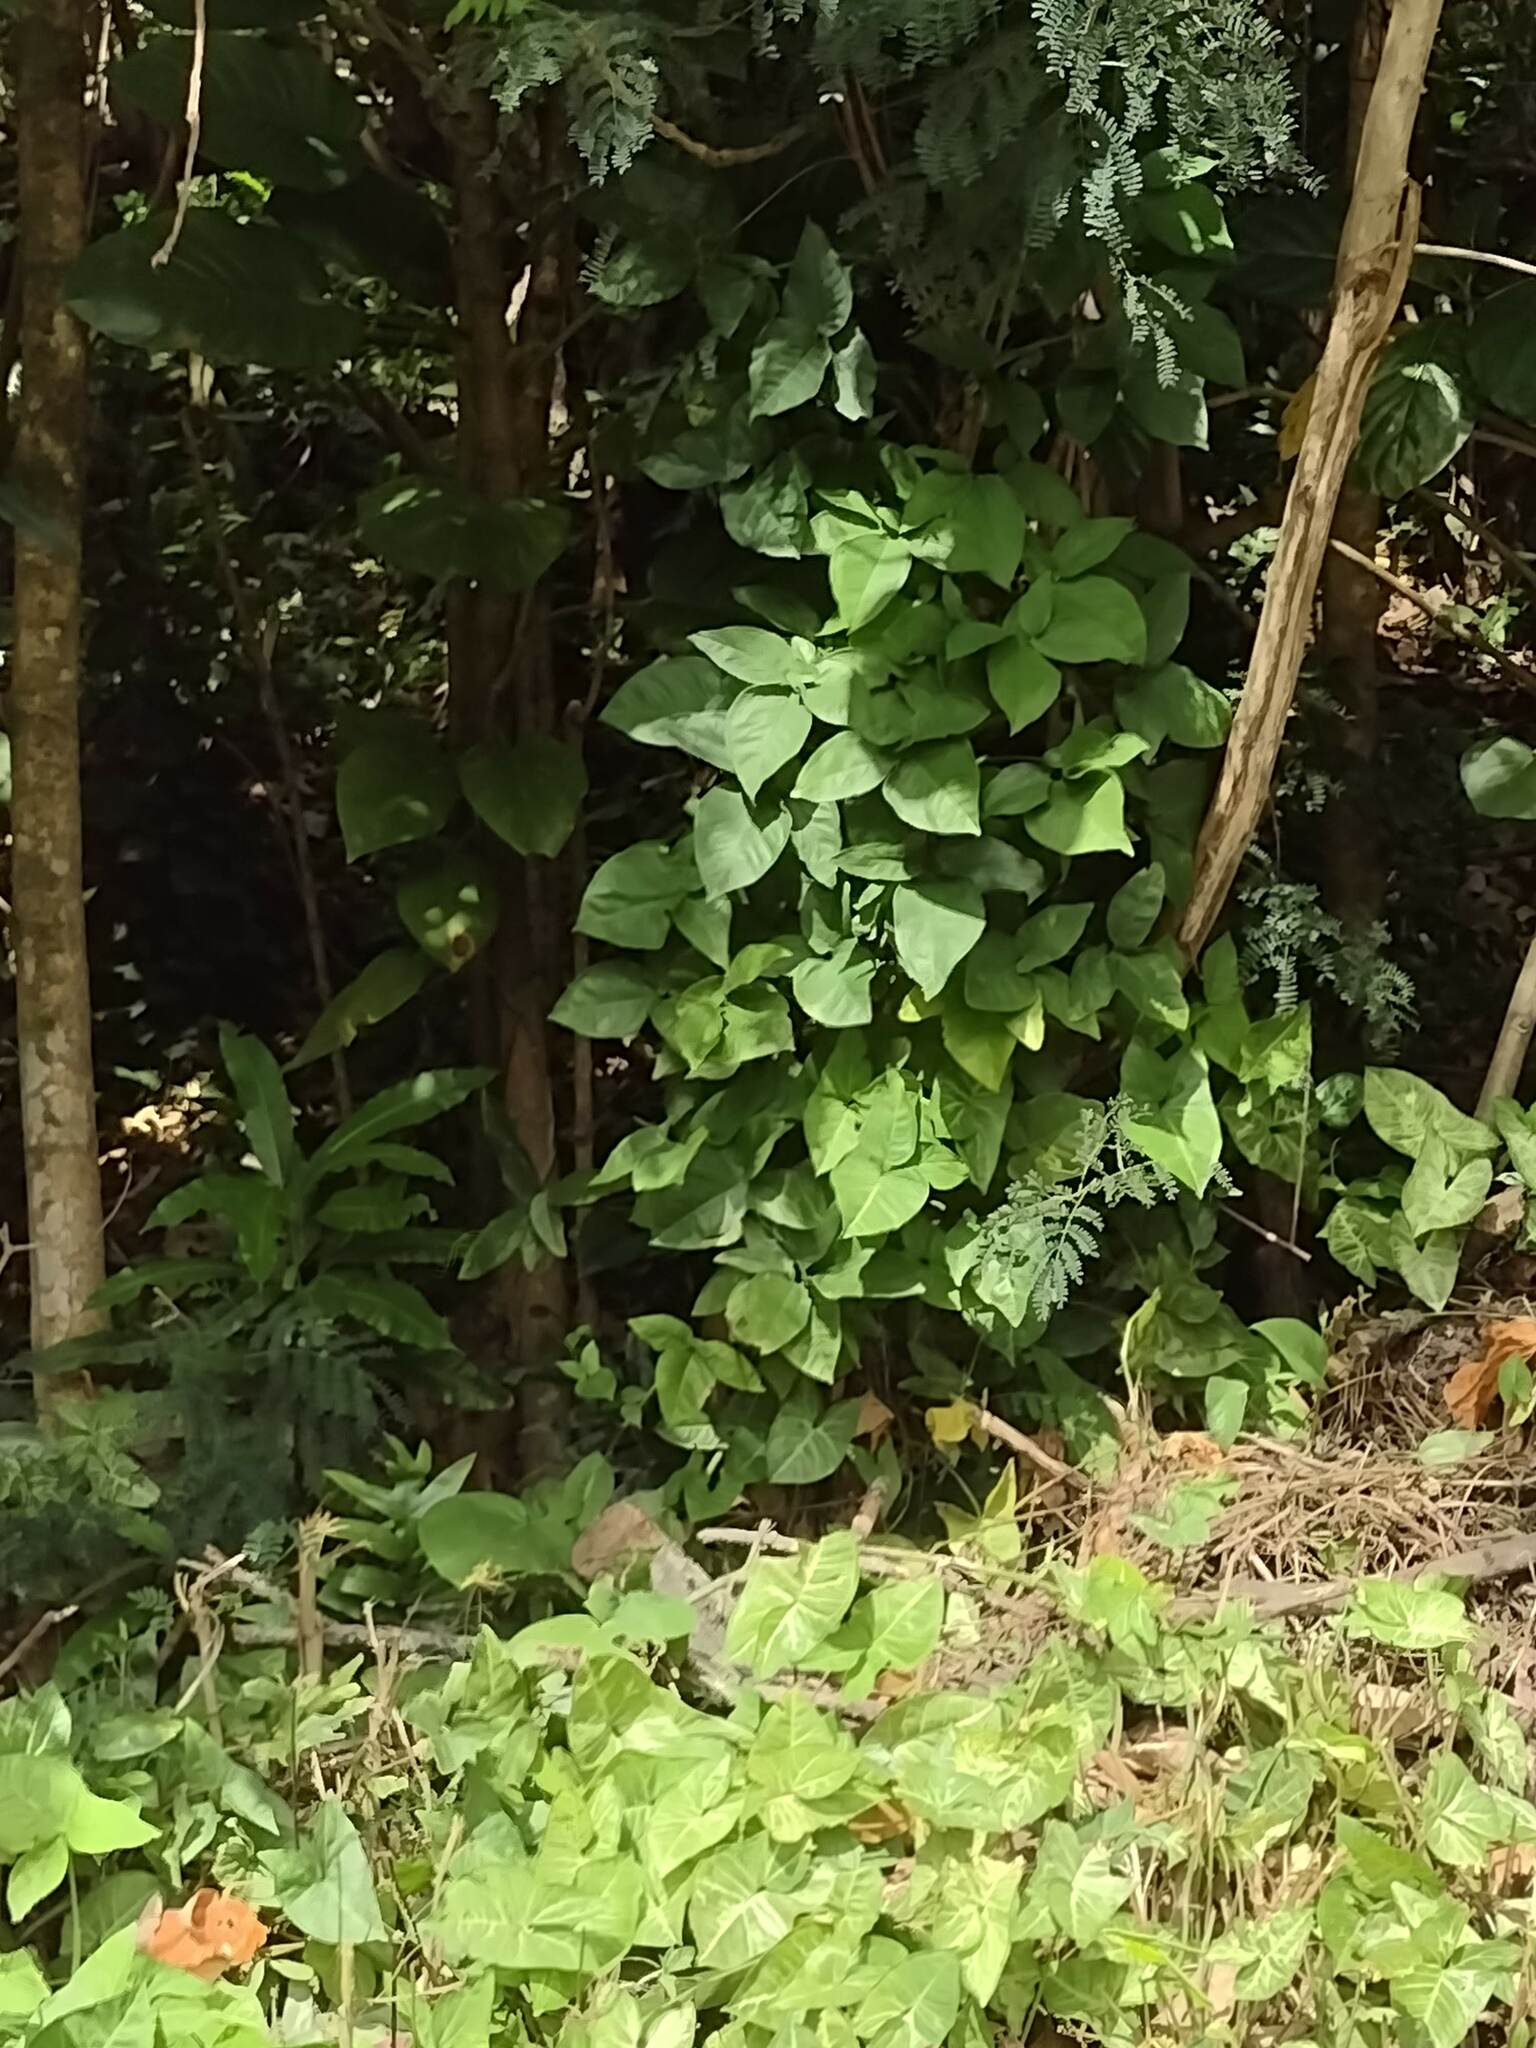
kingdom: Plantae
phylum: Tracheophyta
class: Liliopsida
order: Alismatales
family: Araceae
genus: Syngonium
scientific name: Syngonium podophyllum
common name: American evergreen
